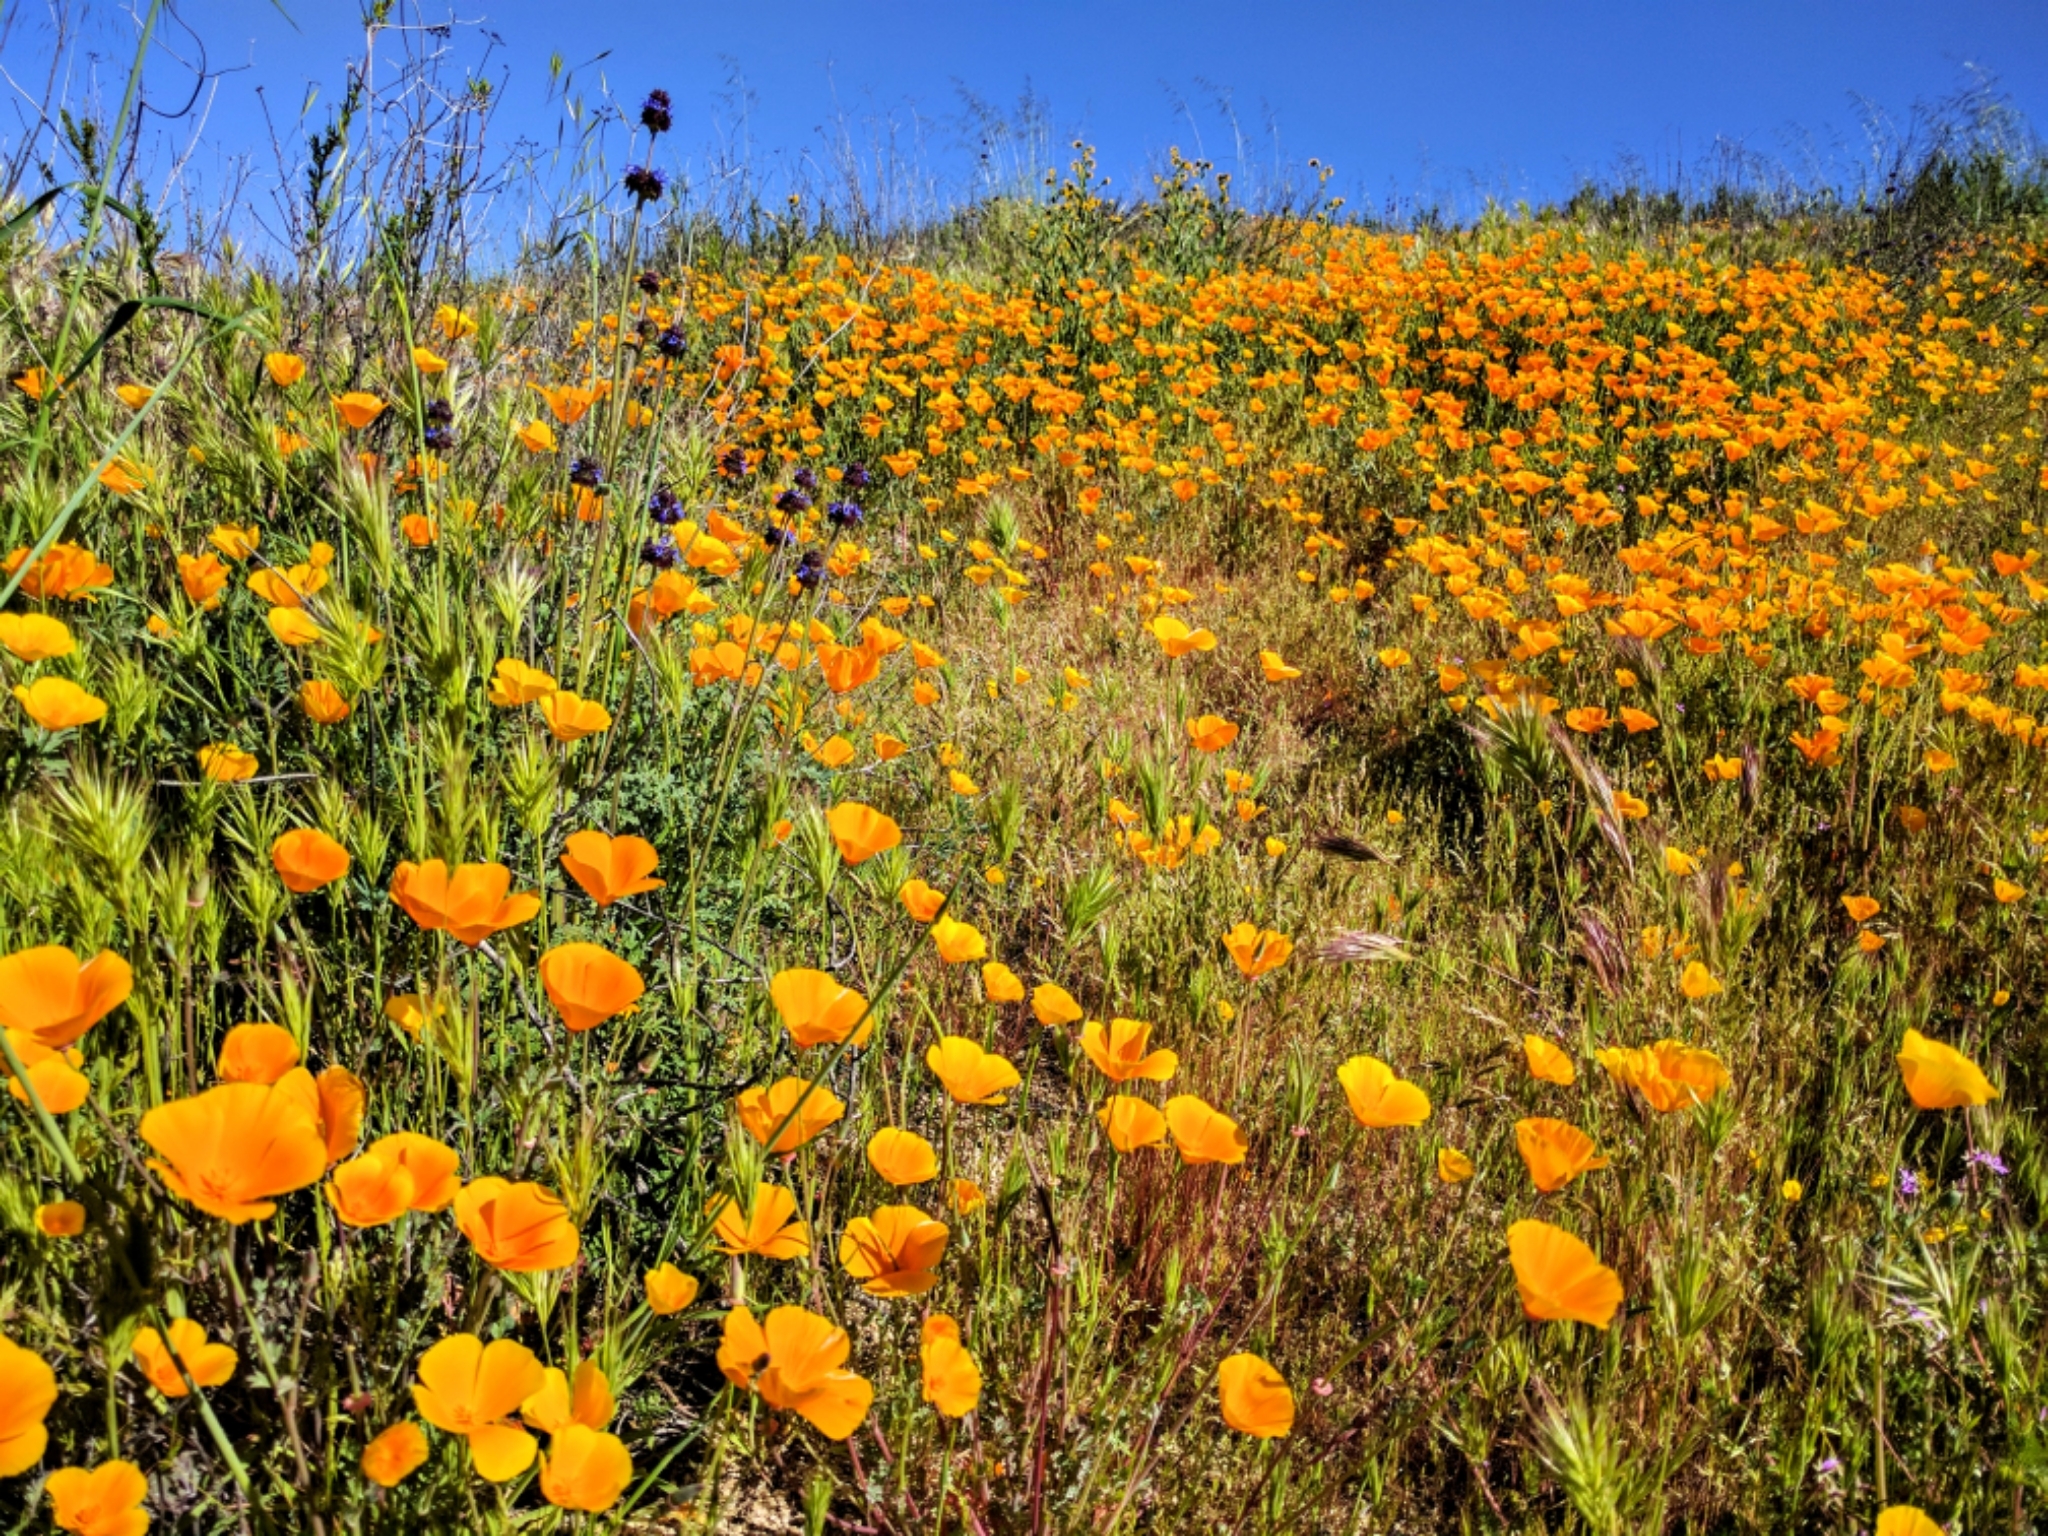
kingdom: Plantae
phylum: Tracheophyta
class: Magnoliopsida
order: Ranunculales
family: Papaveraceae
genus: Eschscholzia
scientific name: Eschscholzia californica
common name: California poppy
